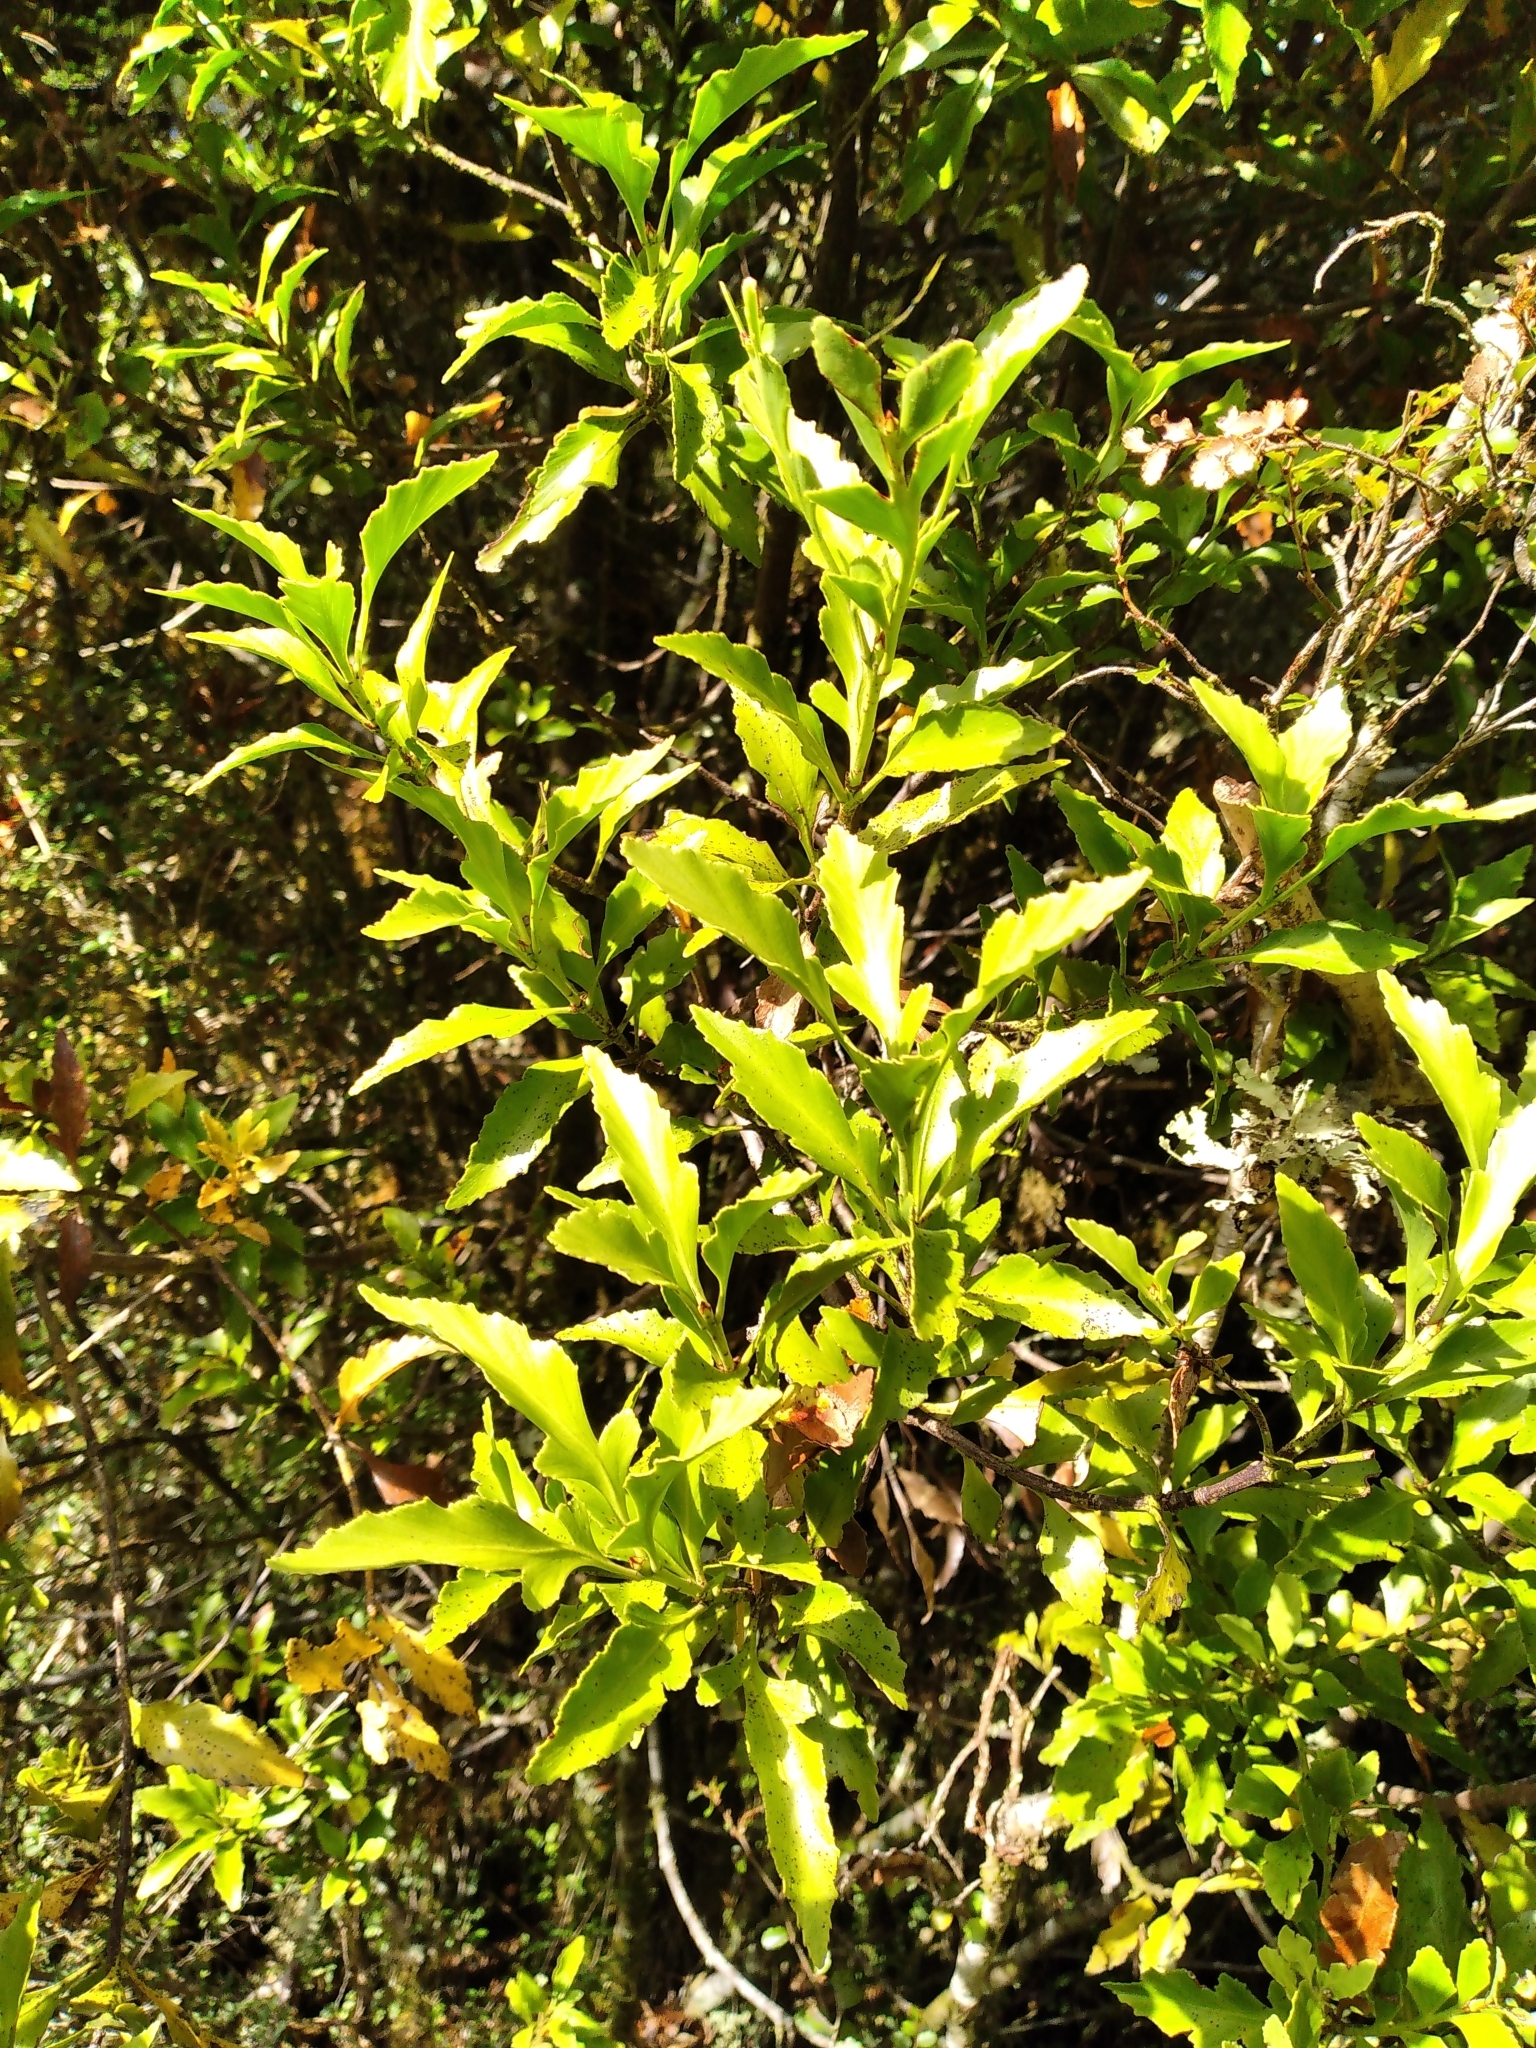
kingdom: Plantae
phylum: Tracheophyta
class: Pinopsida
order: Pinales
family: Phyllocladaceae
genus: Phyllocladus
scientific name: Phyllocladus trichomanoides
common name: Celery pine
